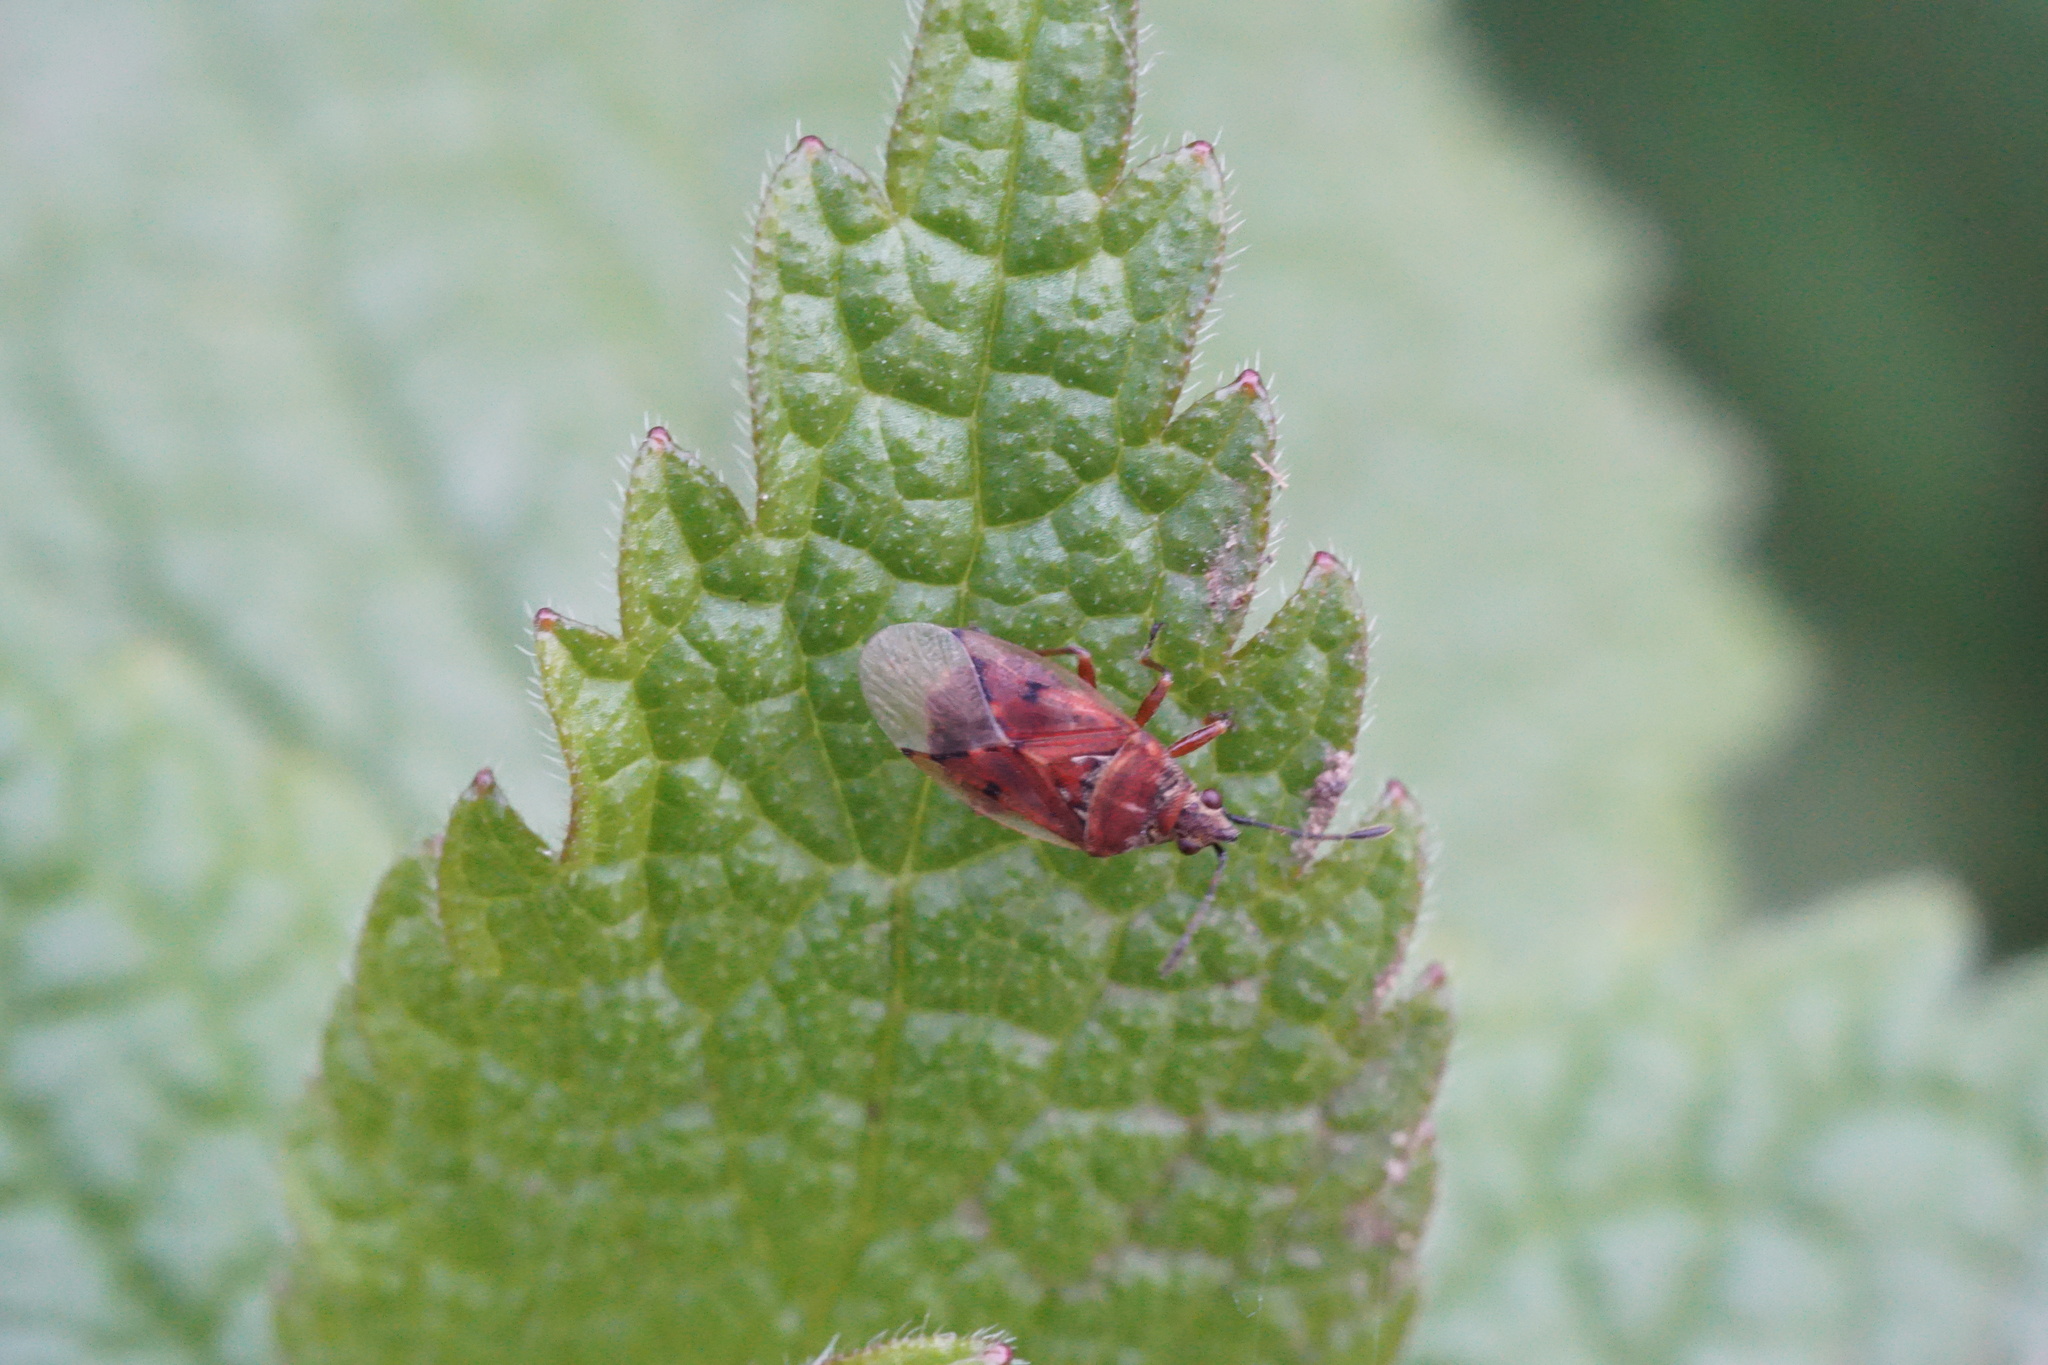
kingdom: Animalia
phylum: Arthropoda
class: Insecta
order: Hemiptera
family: Lygaeidae
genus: Kleidocerys
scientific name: Kleidocerys resedae
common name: Birch catkin bug
